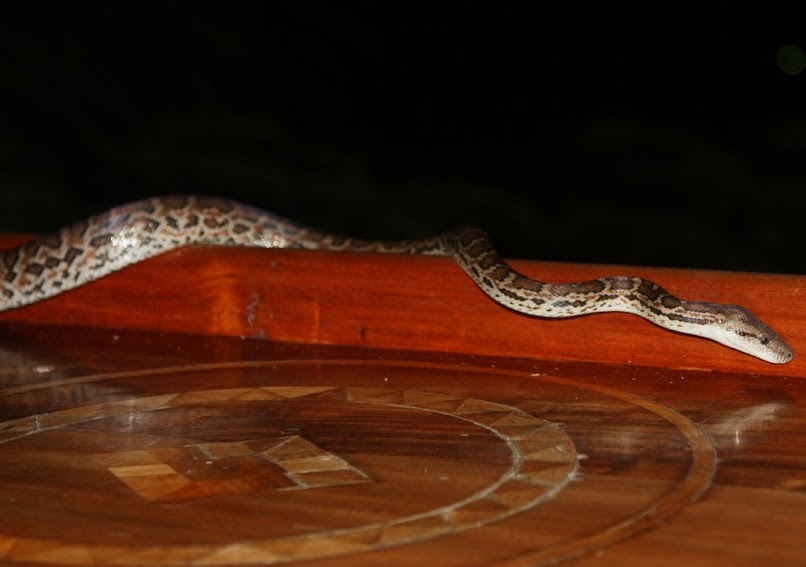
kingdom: Animalia
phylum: Chordata
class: Squamata
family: Boidae
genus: Chilabothrus
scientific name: Chilabothrus striatus
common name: Haitian boa
